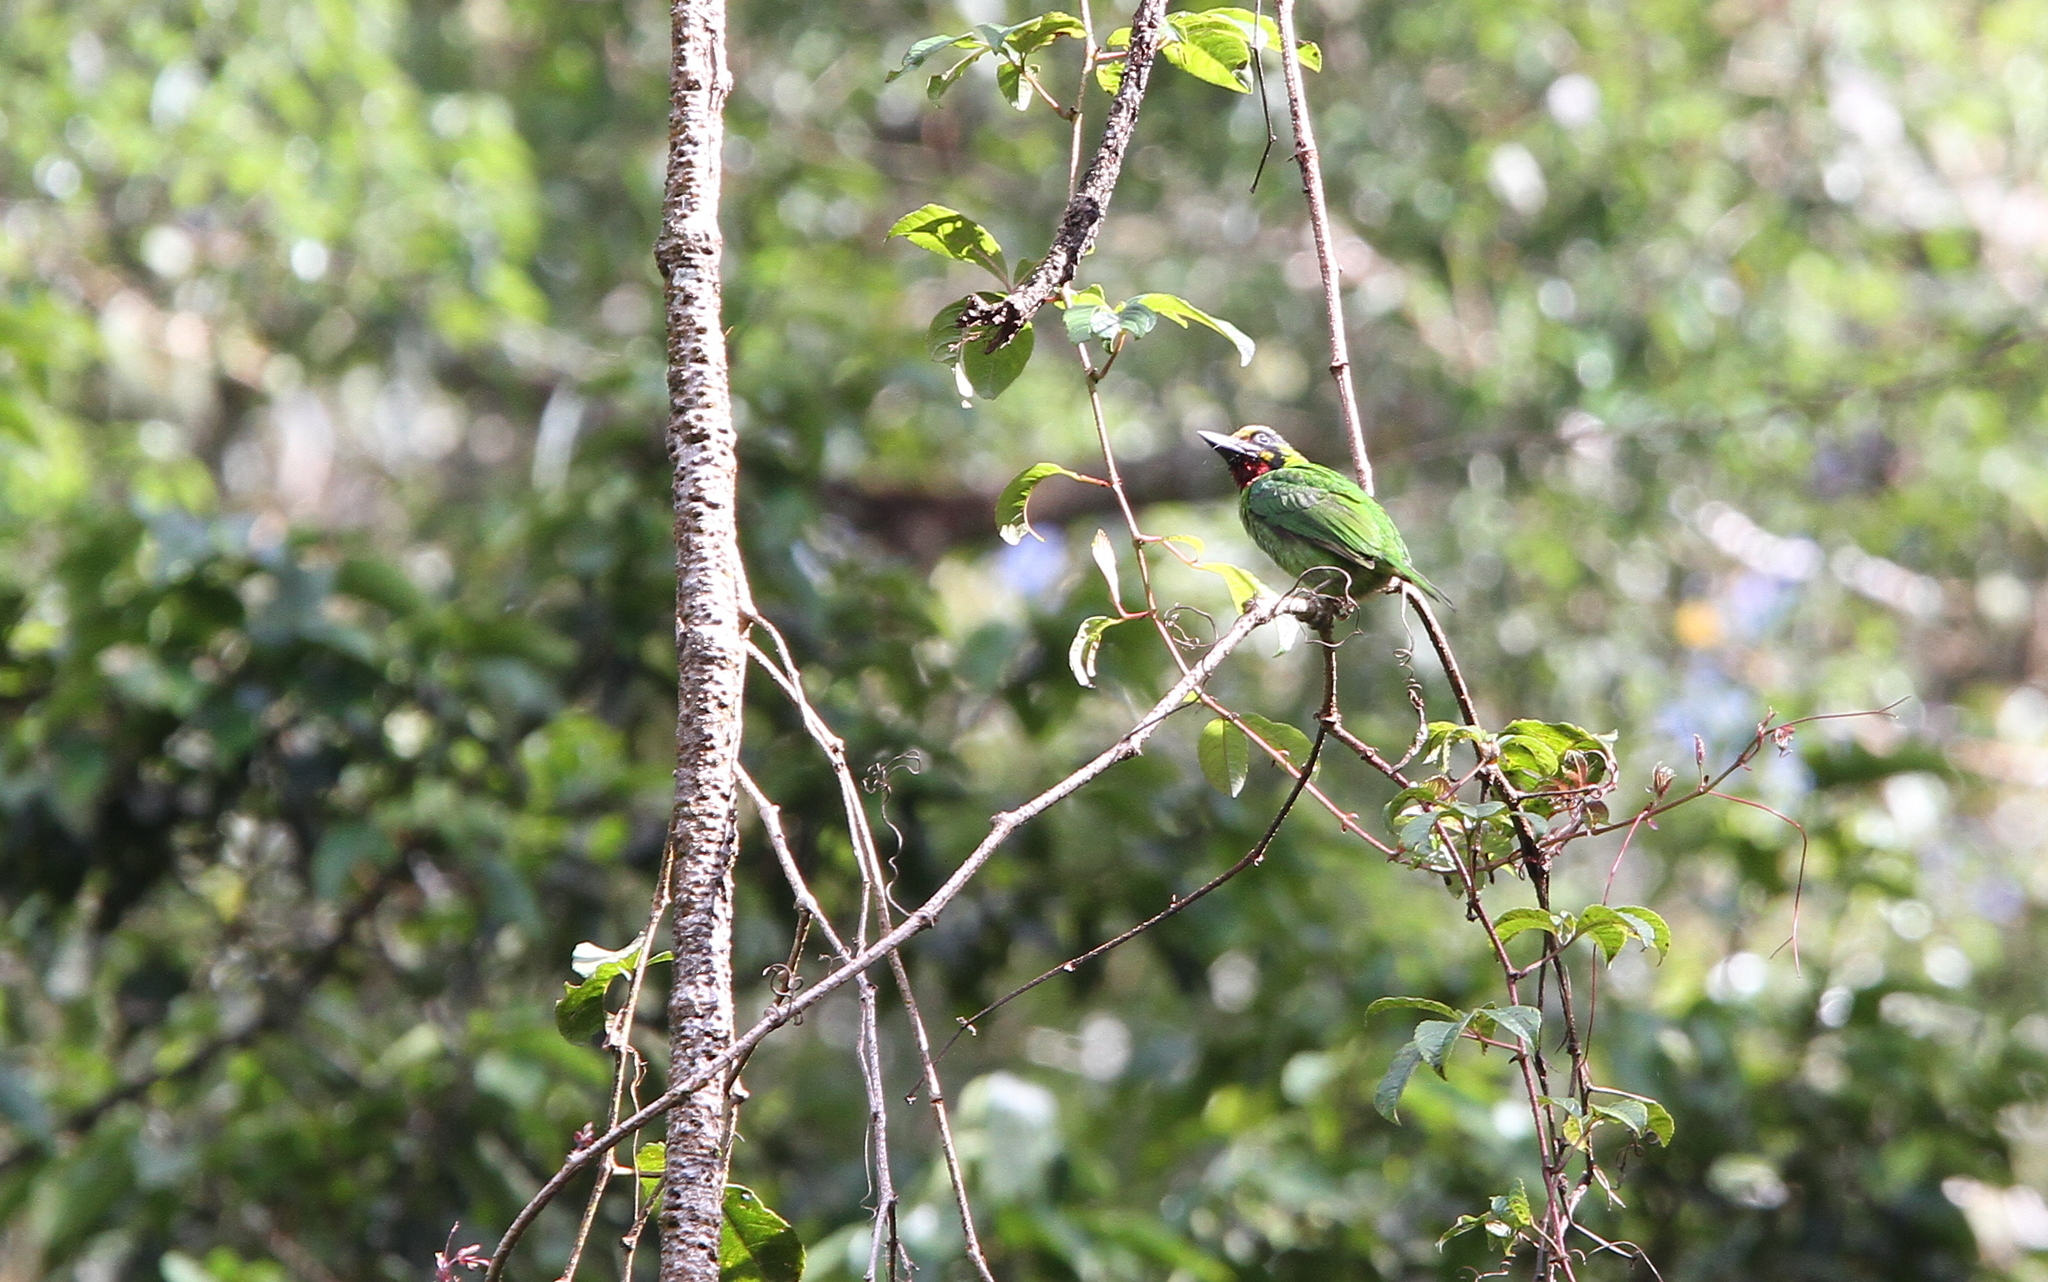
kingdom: Animalia
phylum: Chordata
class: Aves
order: Piciformes
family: Megalaimidae
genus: Psilopogon
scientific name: Psilopogon javensis
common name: Black-banded barbet
